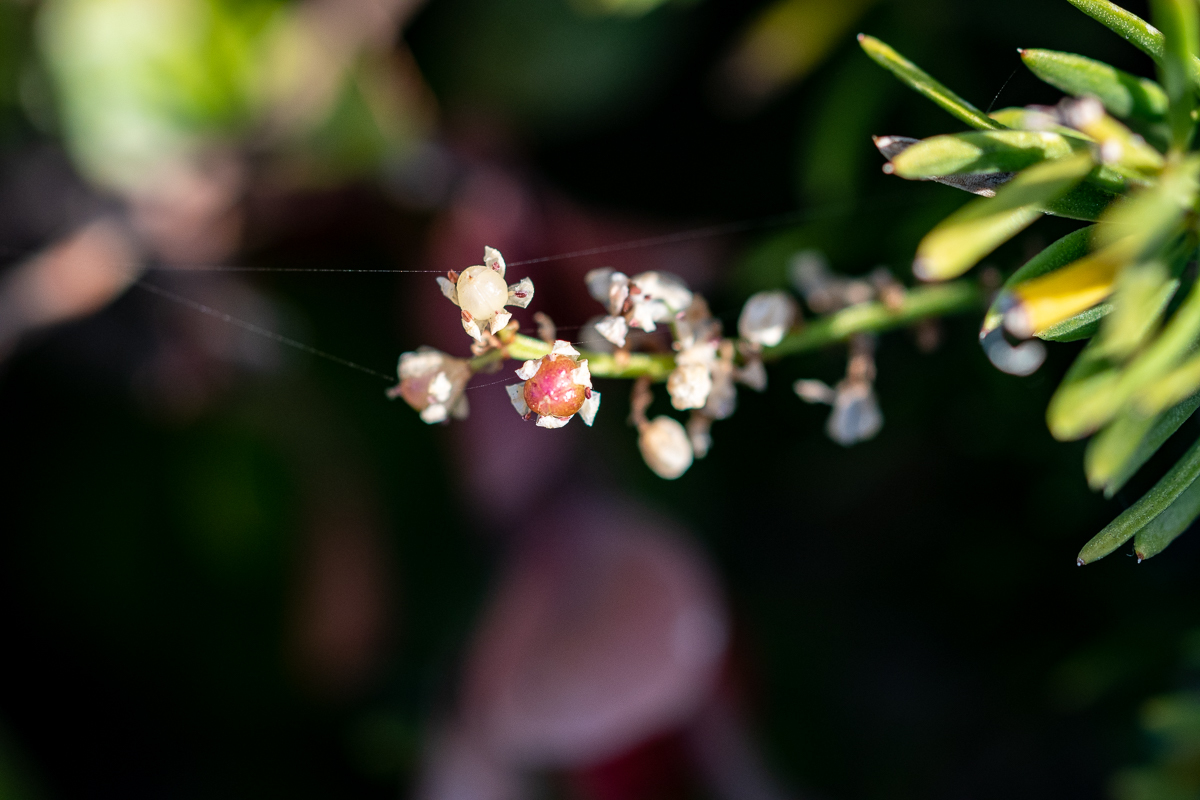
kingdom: Plantae
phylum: Tracheophyta
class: Liliopsida
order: Asparagales
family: Asparagaceae
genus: Asparagus
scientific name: Asparagus aethiopicus
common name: Sprenger's asparagus fern
